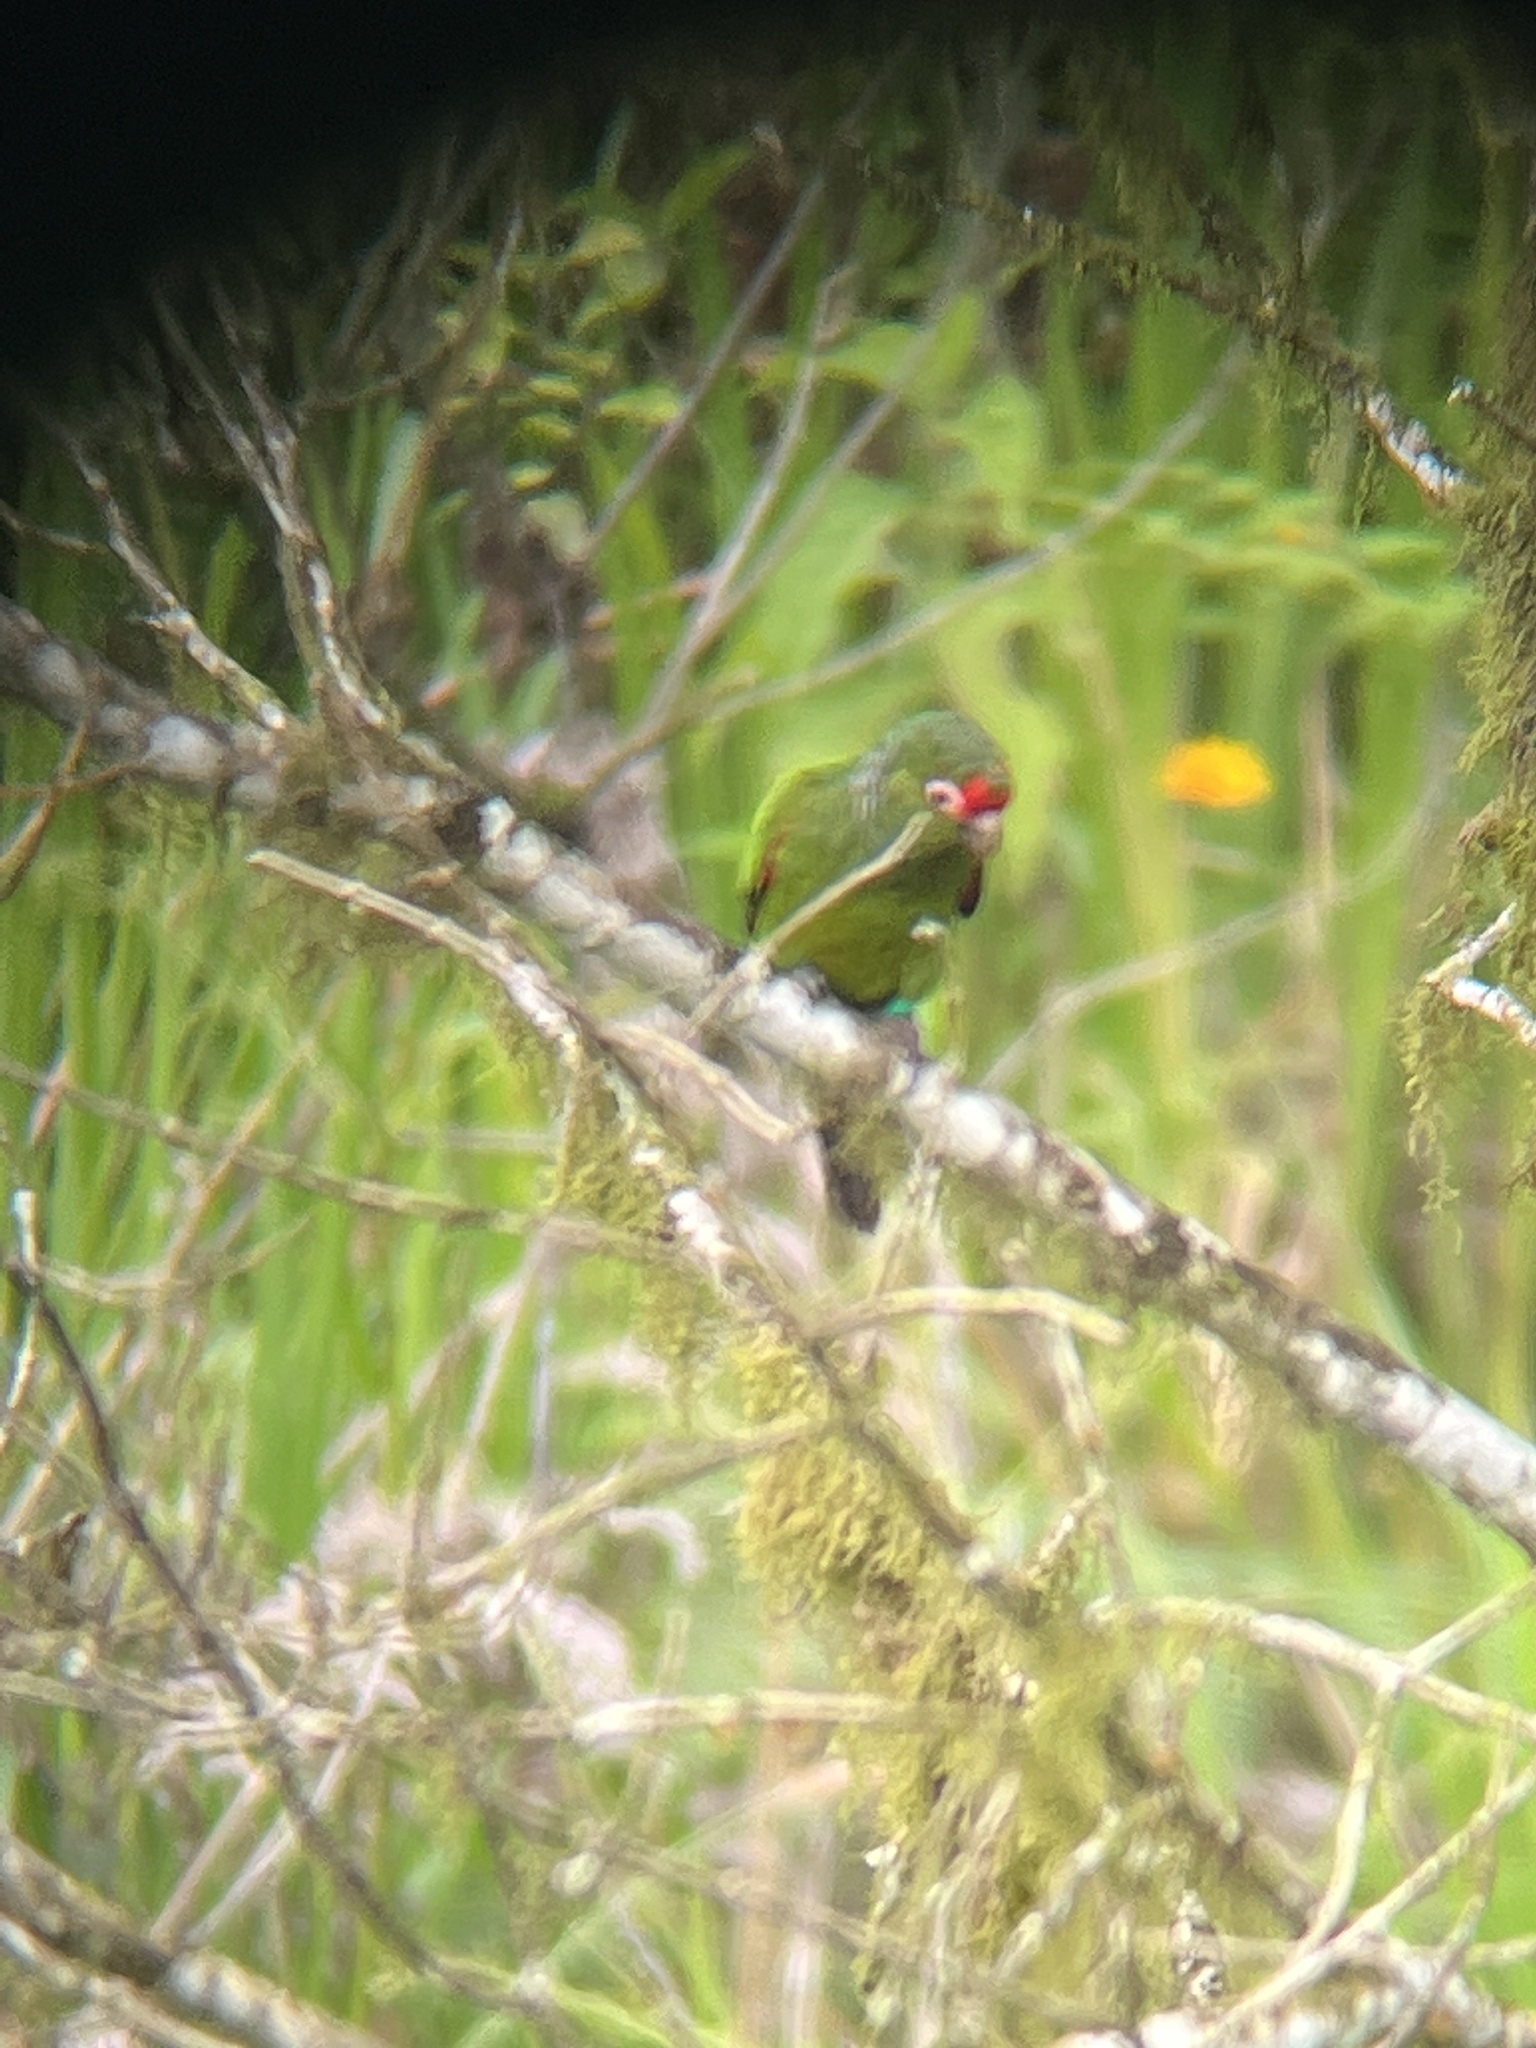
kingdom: Animalia
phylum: Chordata
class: Aves
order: Psittaciformes
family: Psittacidae
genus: Pyrrhura
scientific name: Pyrrhura orcesi
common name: El oro parakeet
